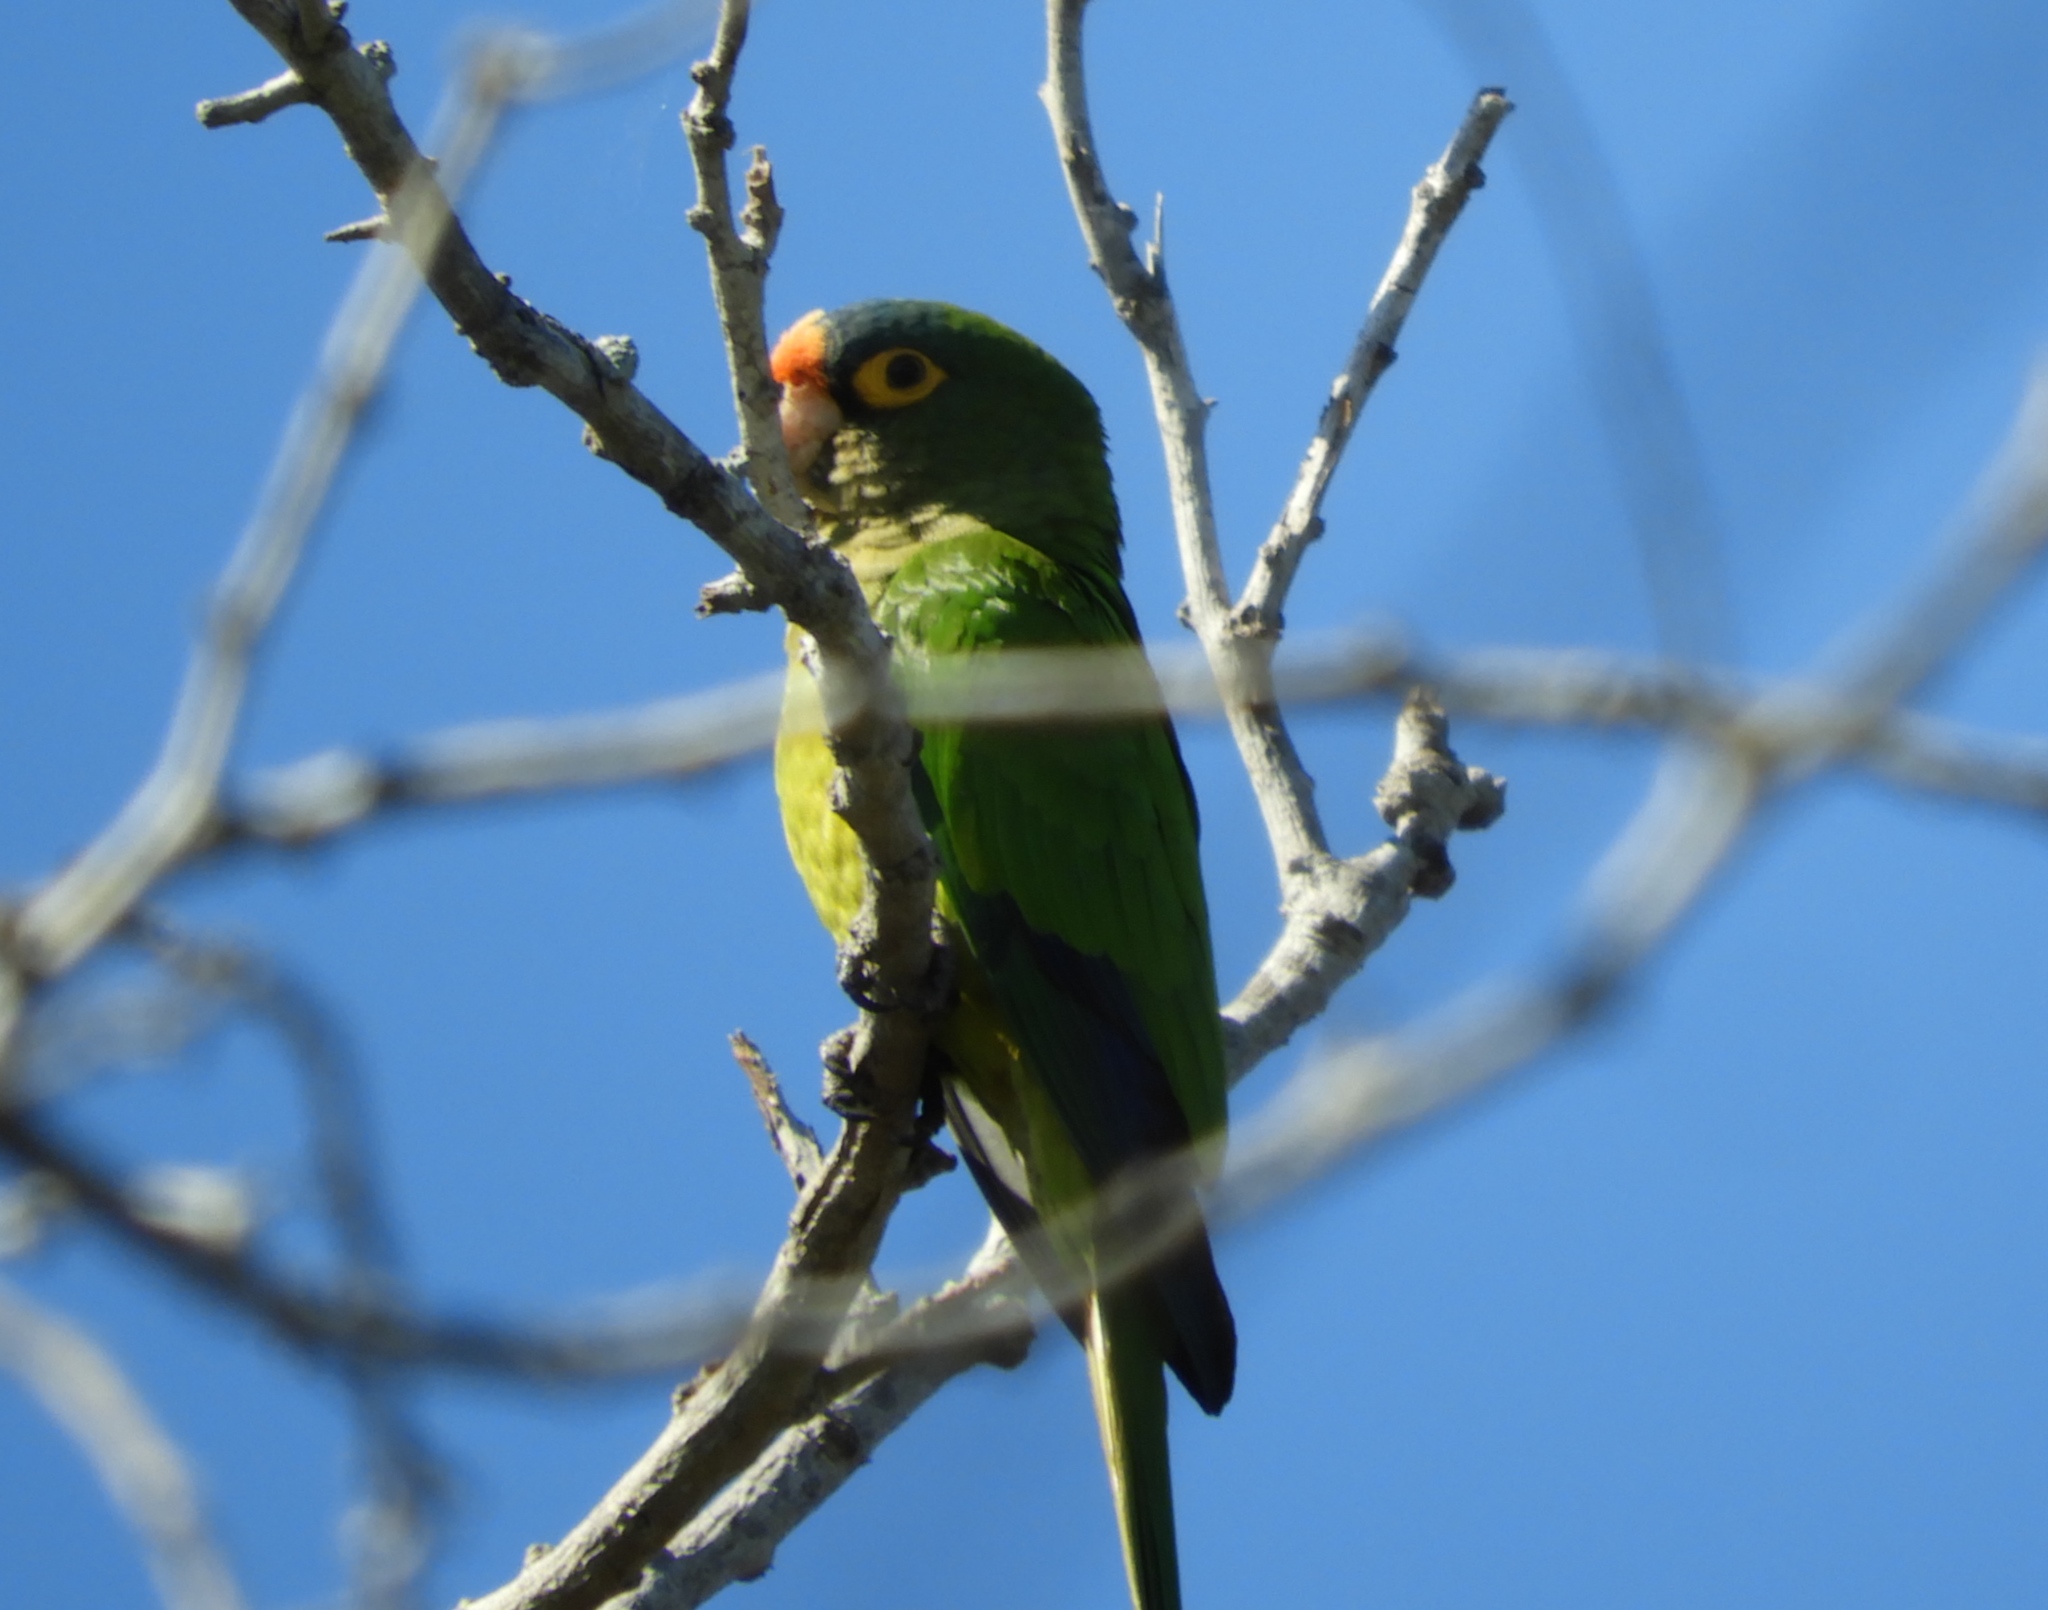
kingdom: Animalia
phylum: Chordata
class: Aves
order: Psittaciformes
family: Psittacidae
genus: Aratinga
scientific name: Aratinga canicularis
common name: Orange-fronted parakeet
